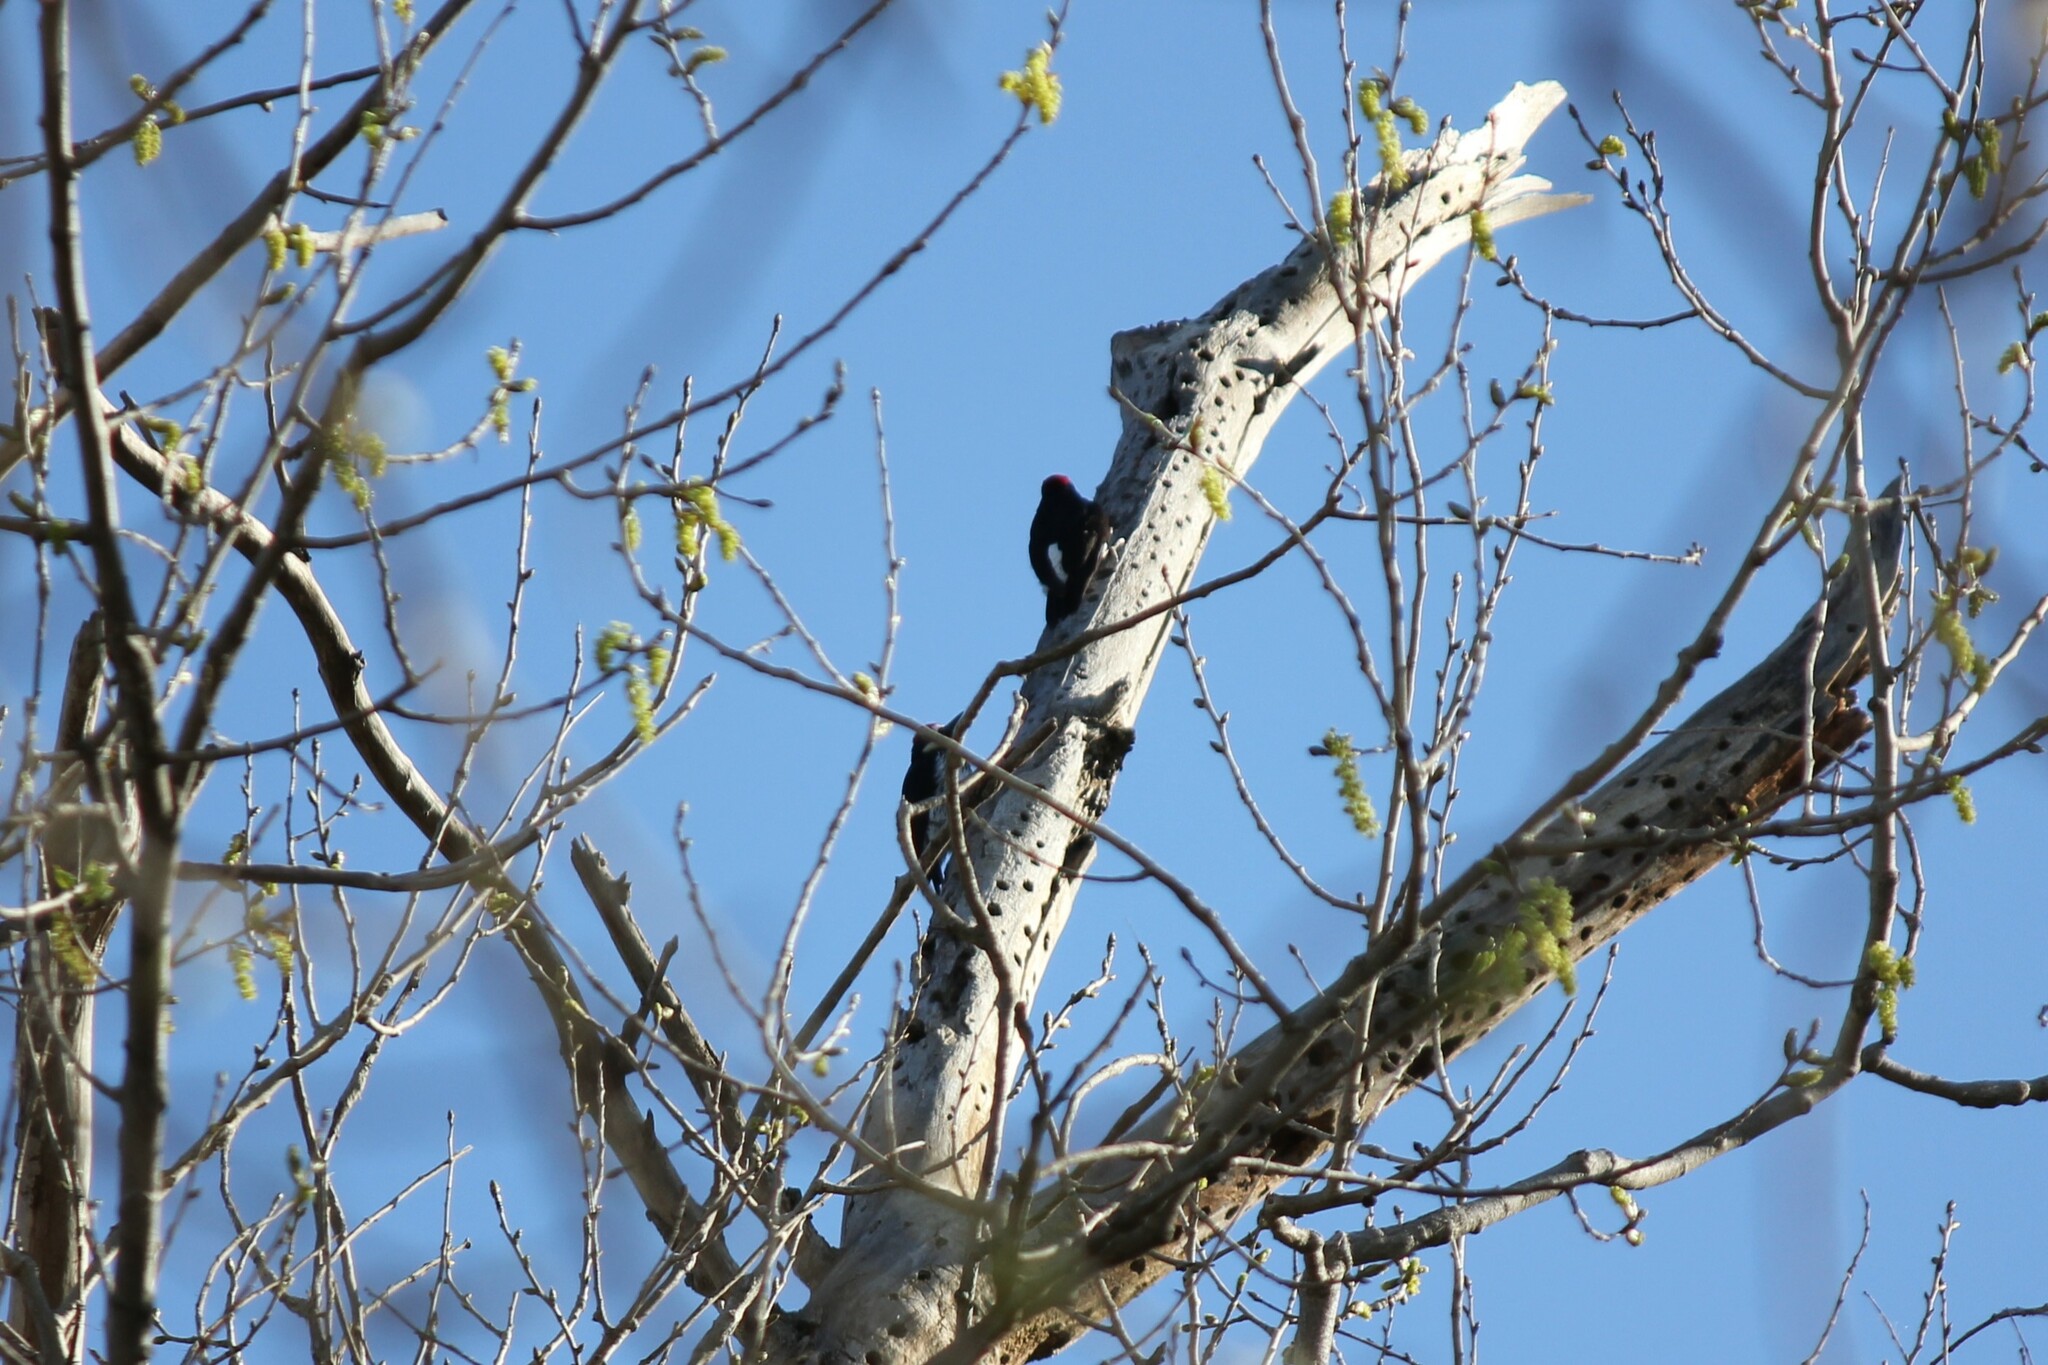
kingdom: Animalia
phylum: Chordata
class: Aves
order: Piciformes
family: Picidae
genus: Melanerpes
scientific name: Melanerpes formicivorus
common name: Acorn woodpecker
